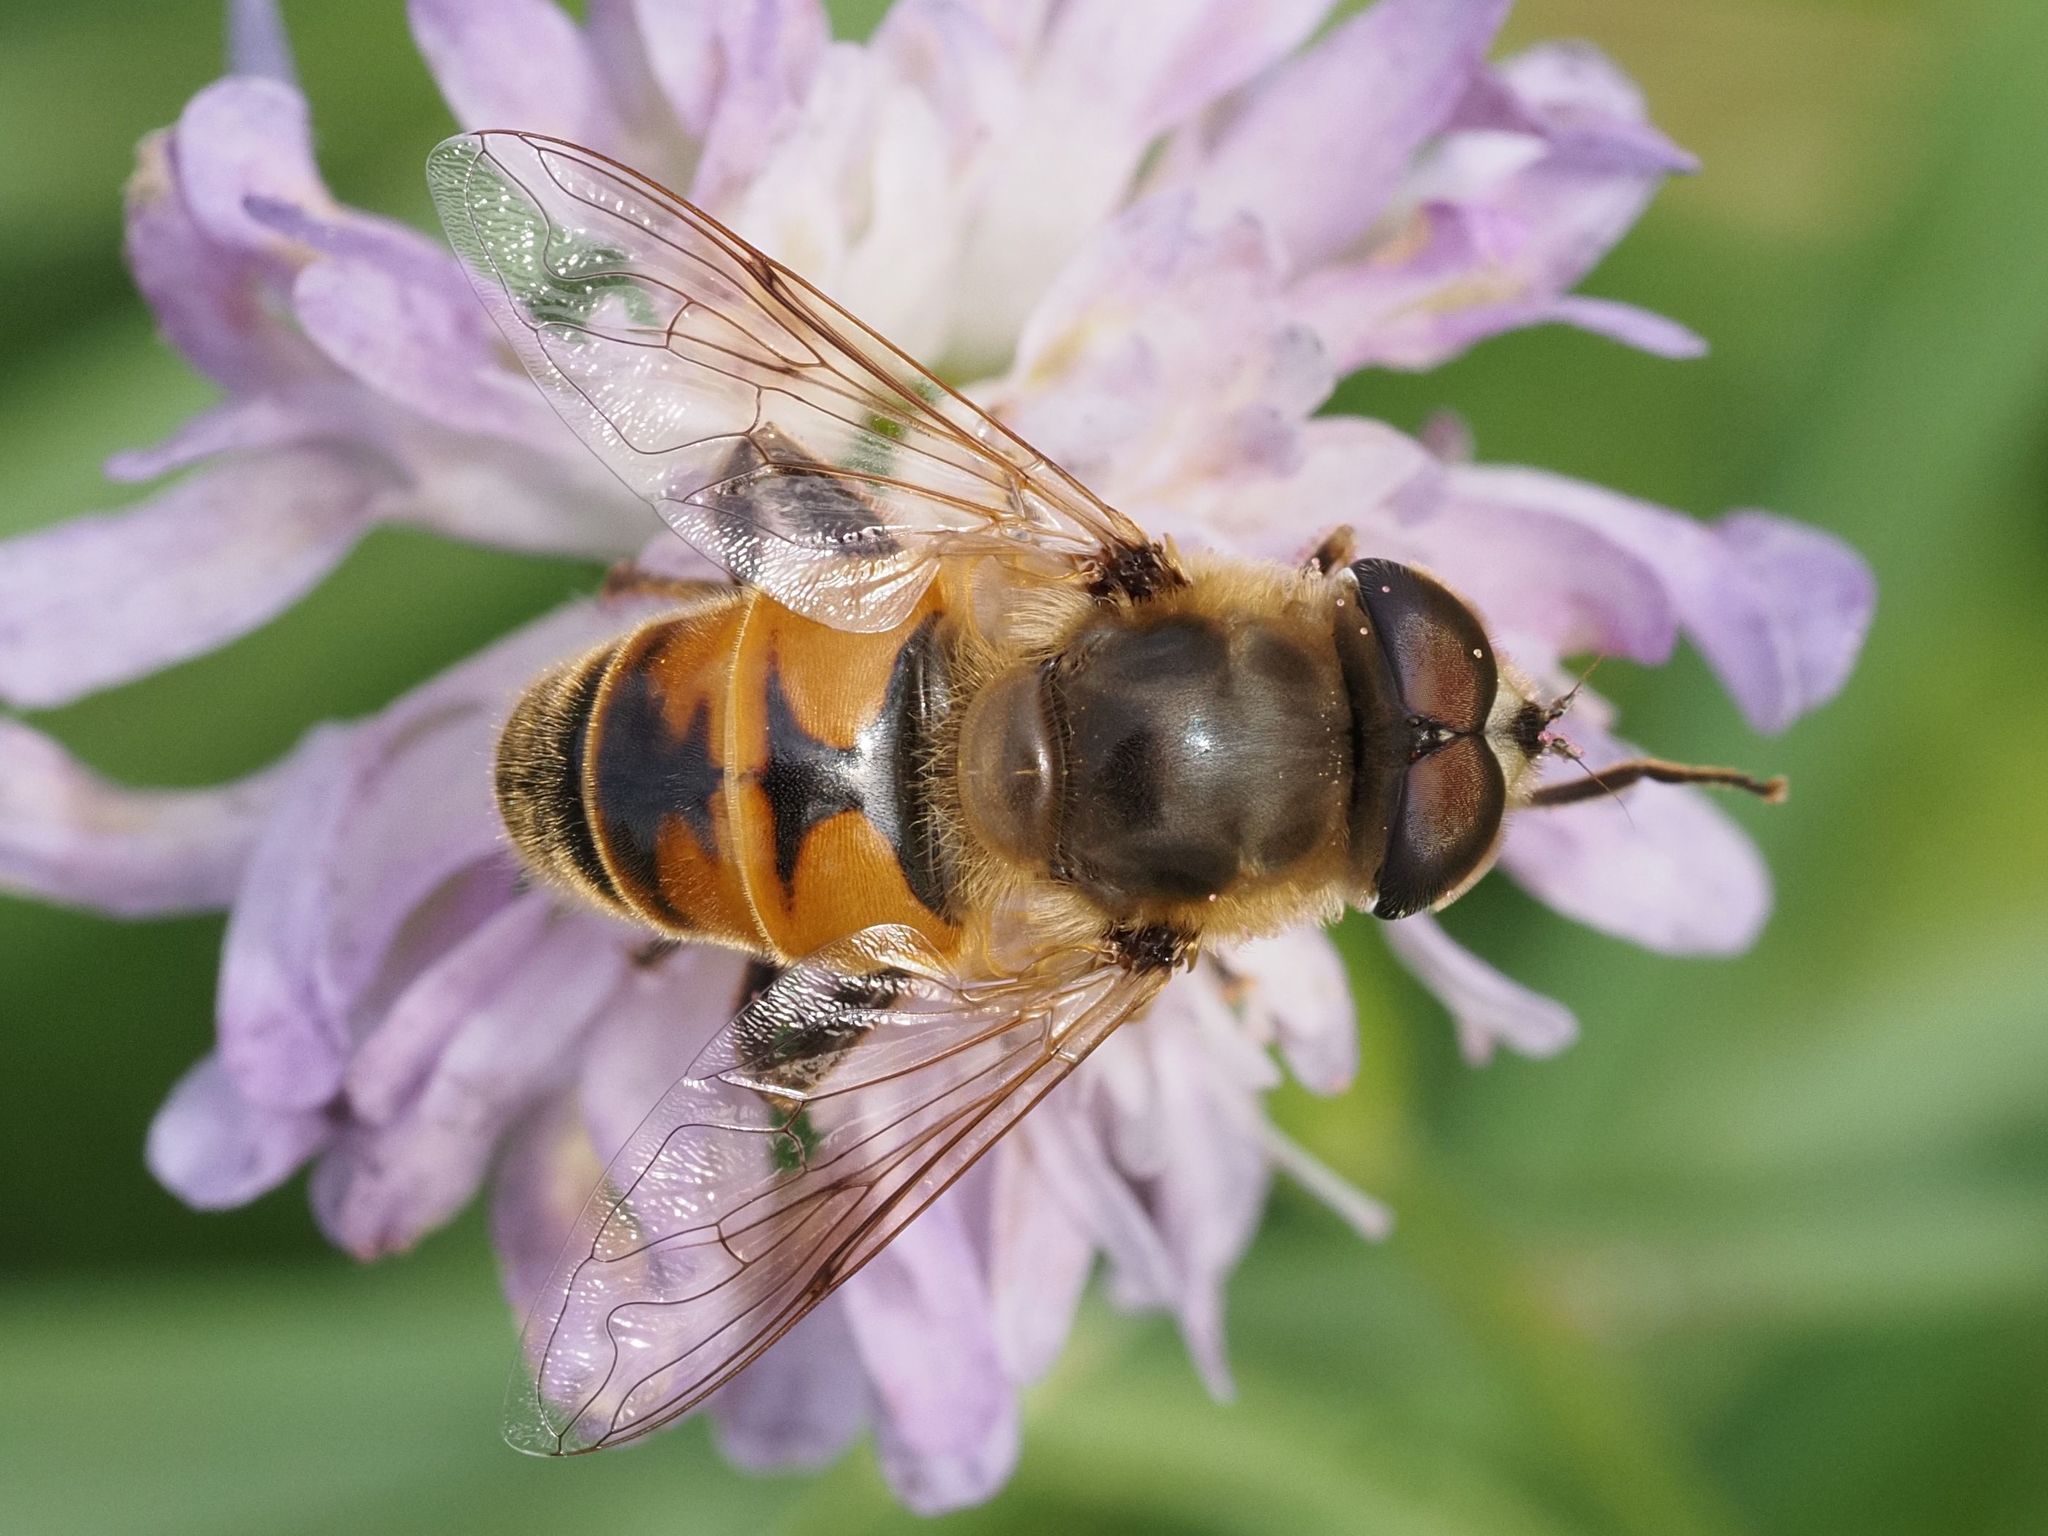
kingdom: Animalia
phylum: Arthropoda
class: Insecta
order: Diptera
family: Syrphidae
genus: Eristalis
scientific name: Eristalis tenax
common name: Drone fly
